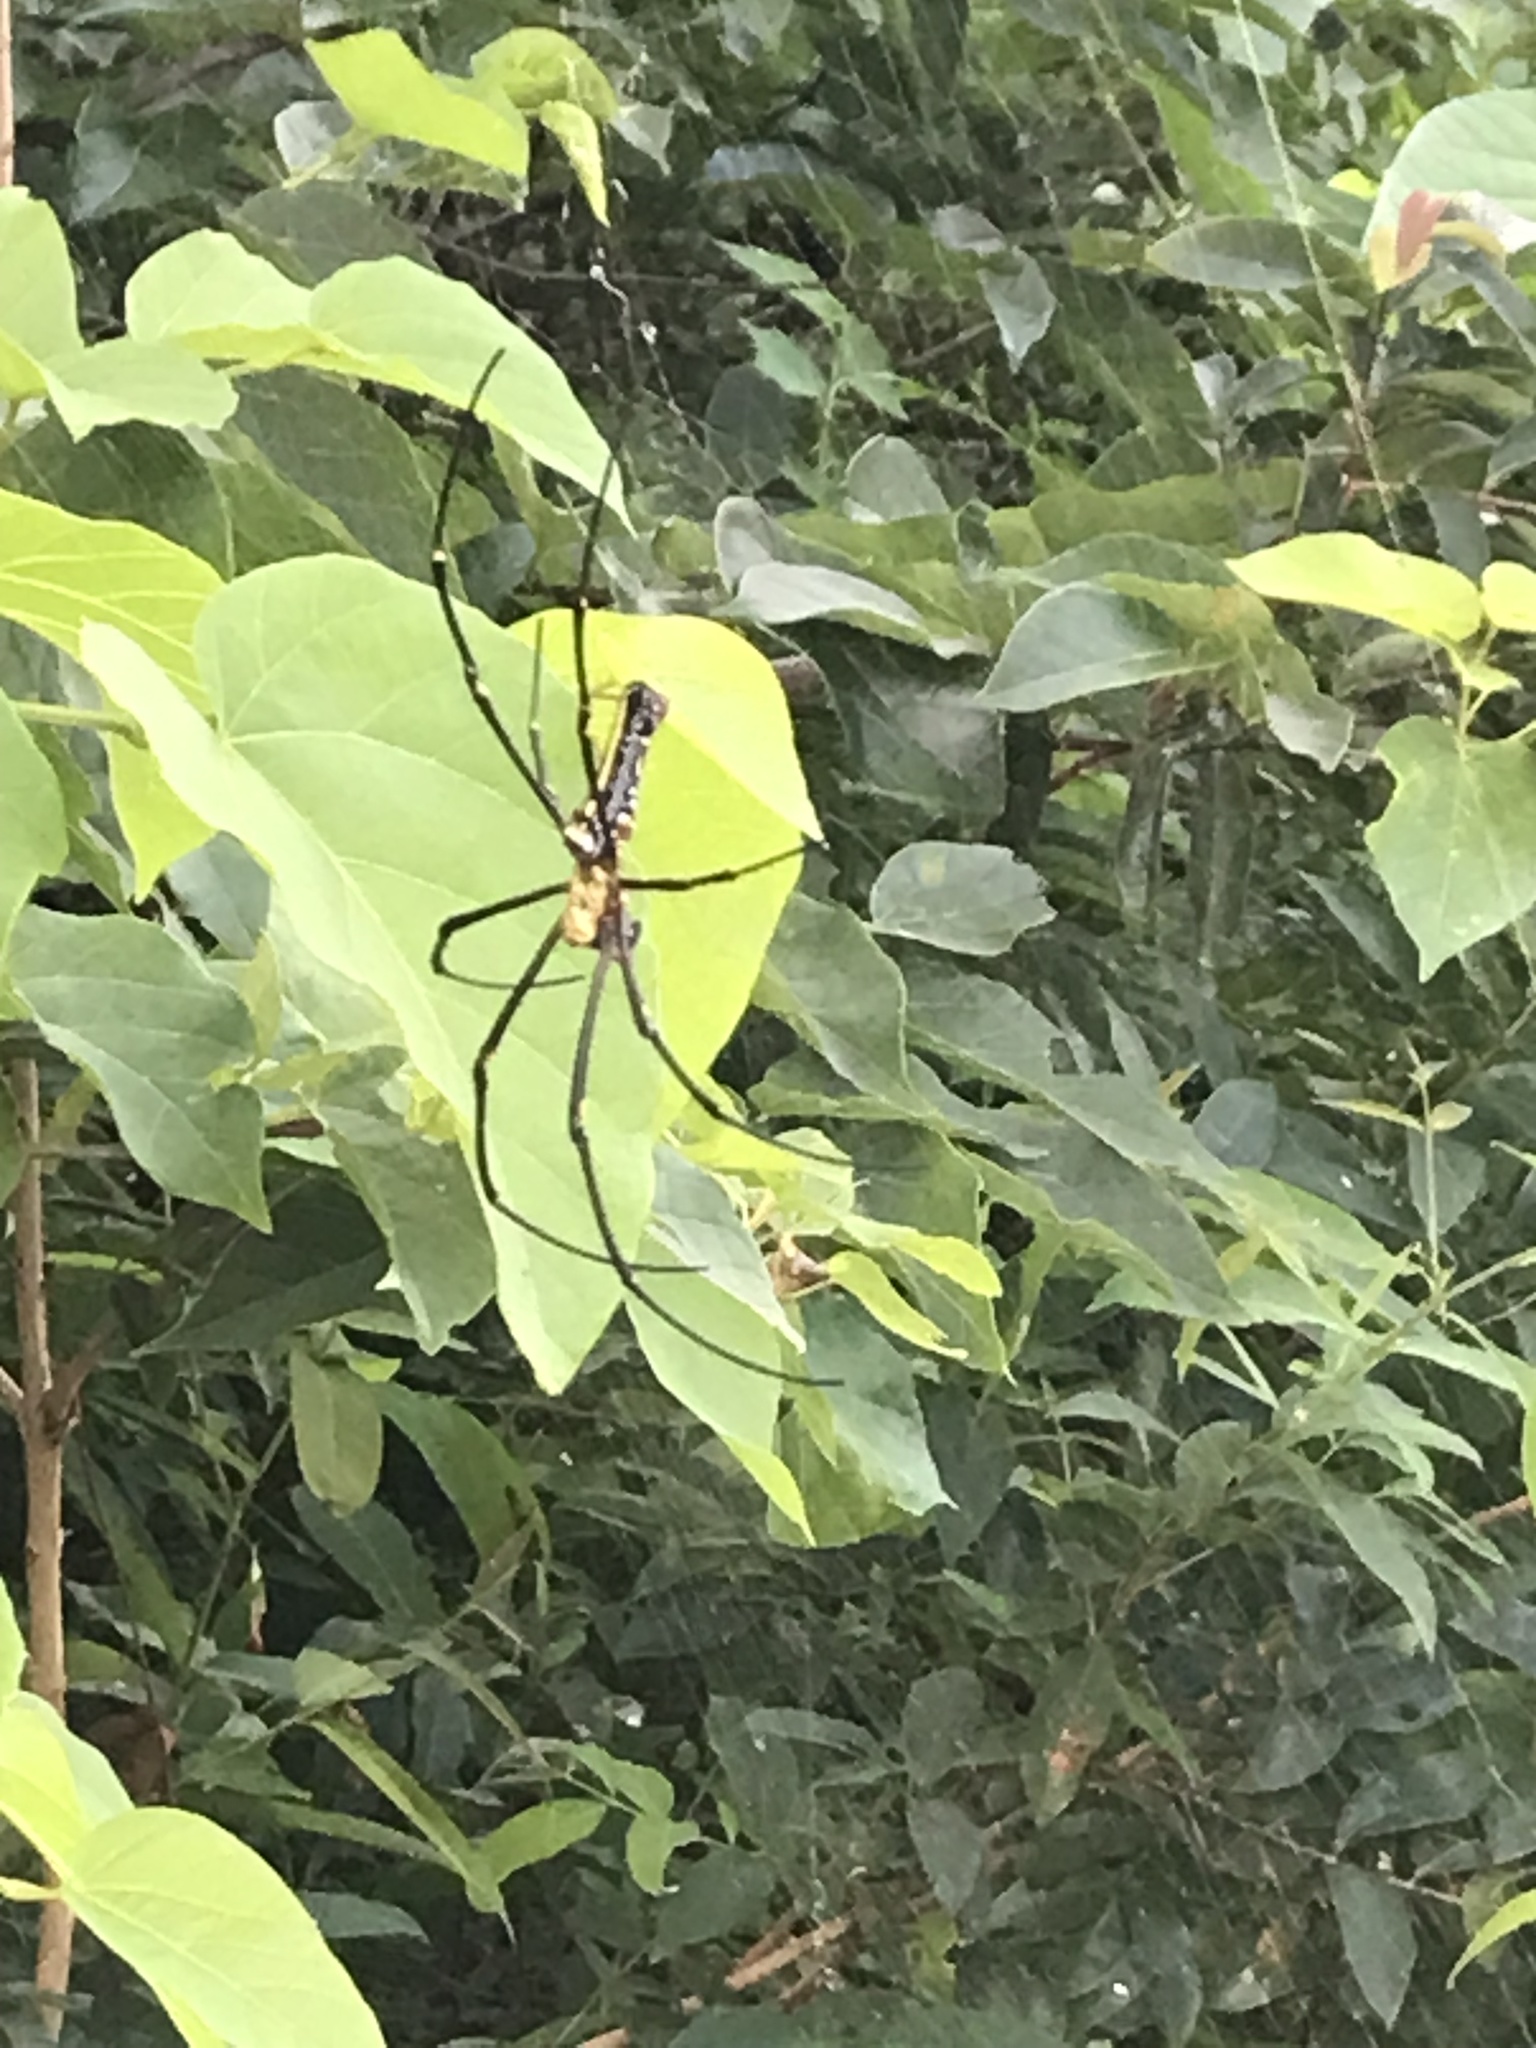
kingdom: Animalia
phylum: Arthropoda
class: Arachnida
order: Araneae
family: Araneidae
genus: Nephila
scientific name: Nephila pilipes
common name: Giant golden orb weaver
